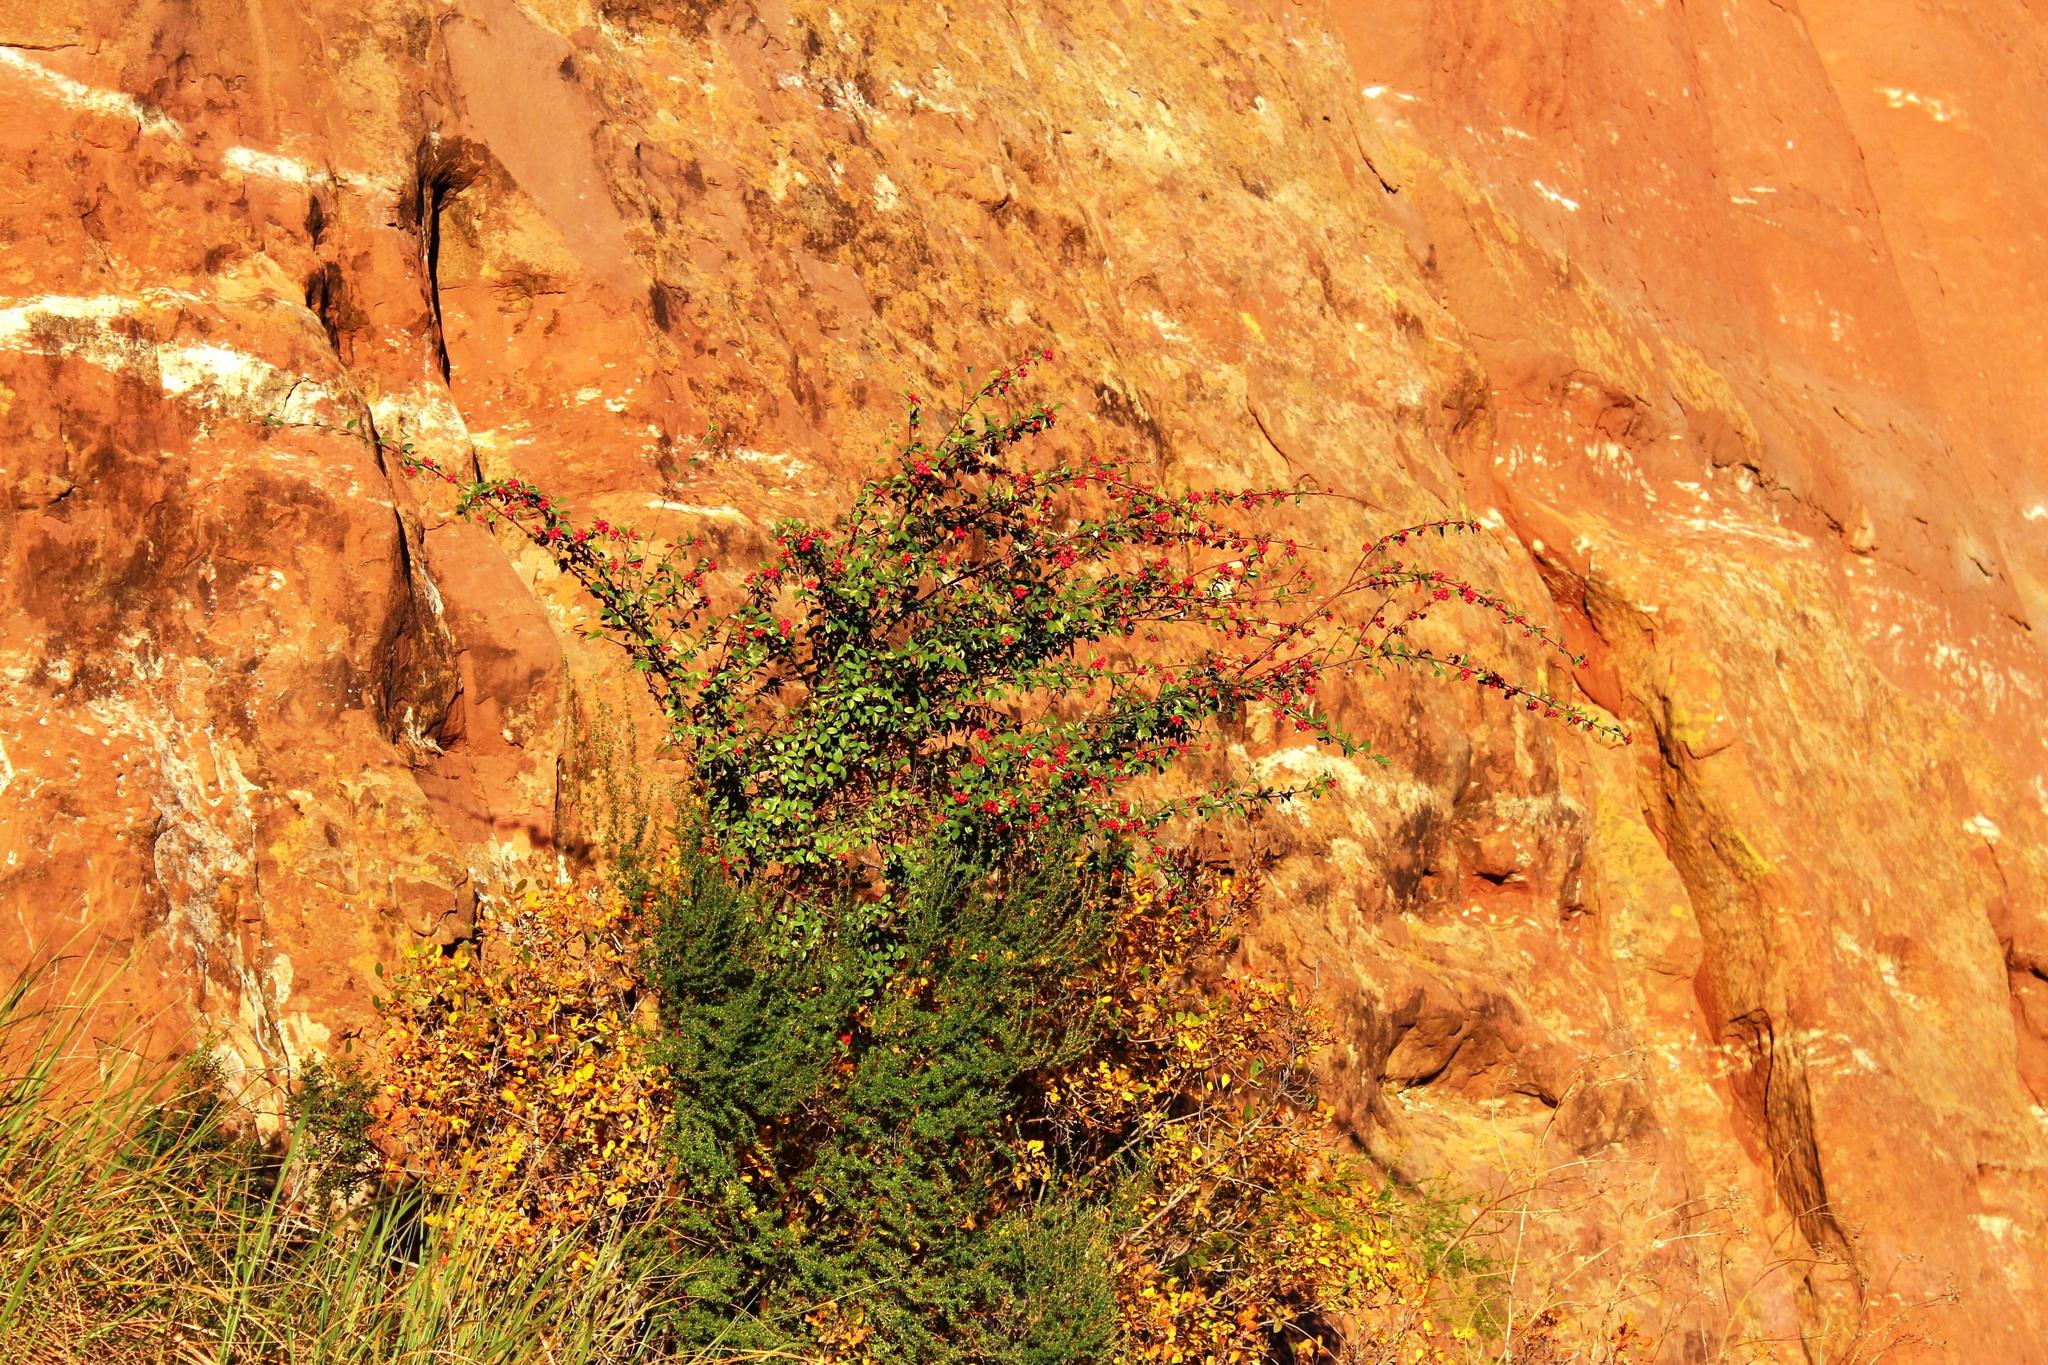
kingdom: Plantae
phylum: Tracheophyta
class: Magnoliopsida
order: Rosales
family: Rosaceae
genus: Cotoneaster
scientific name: Cotoneaster pannosus
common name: Silverleaf cotoneaster
